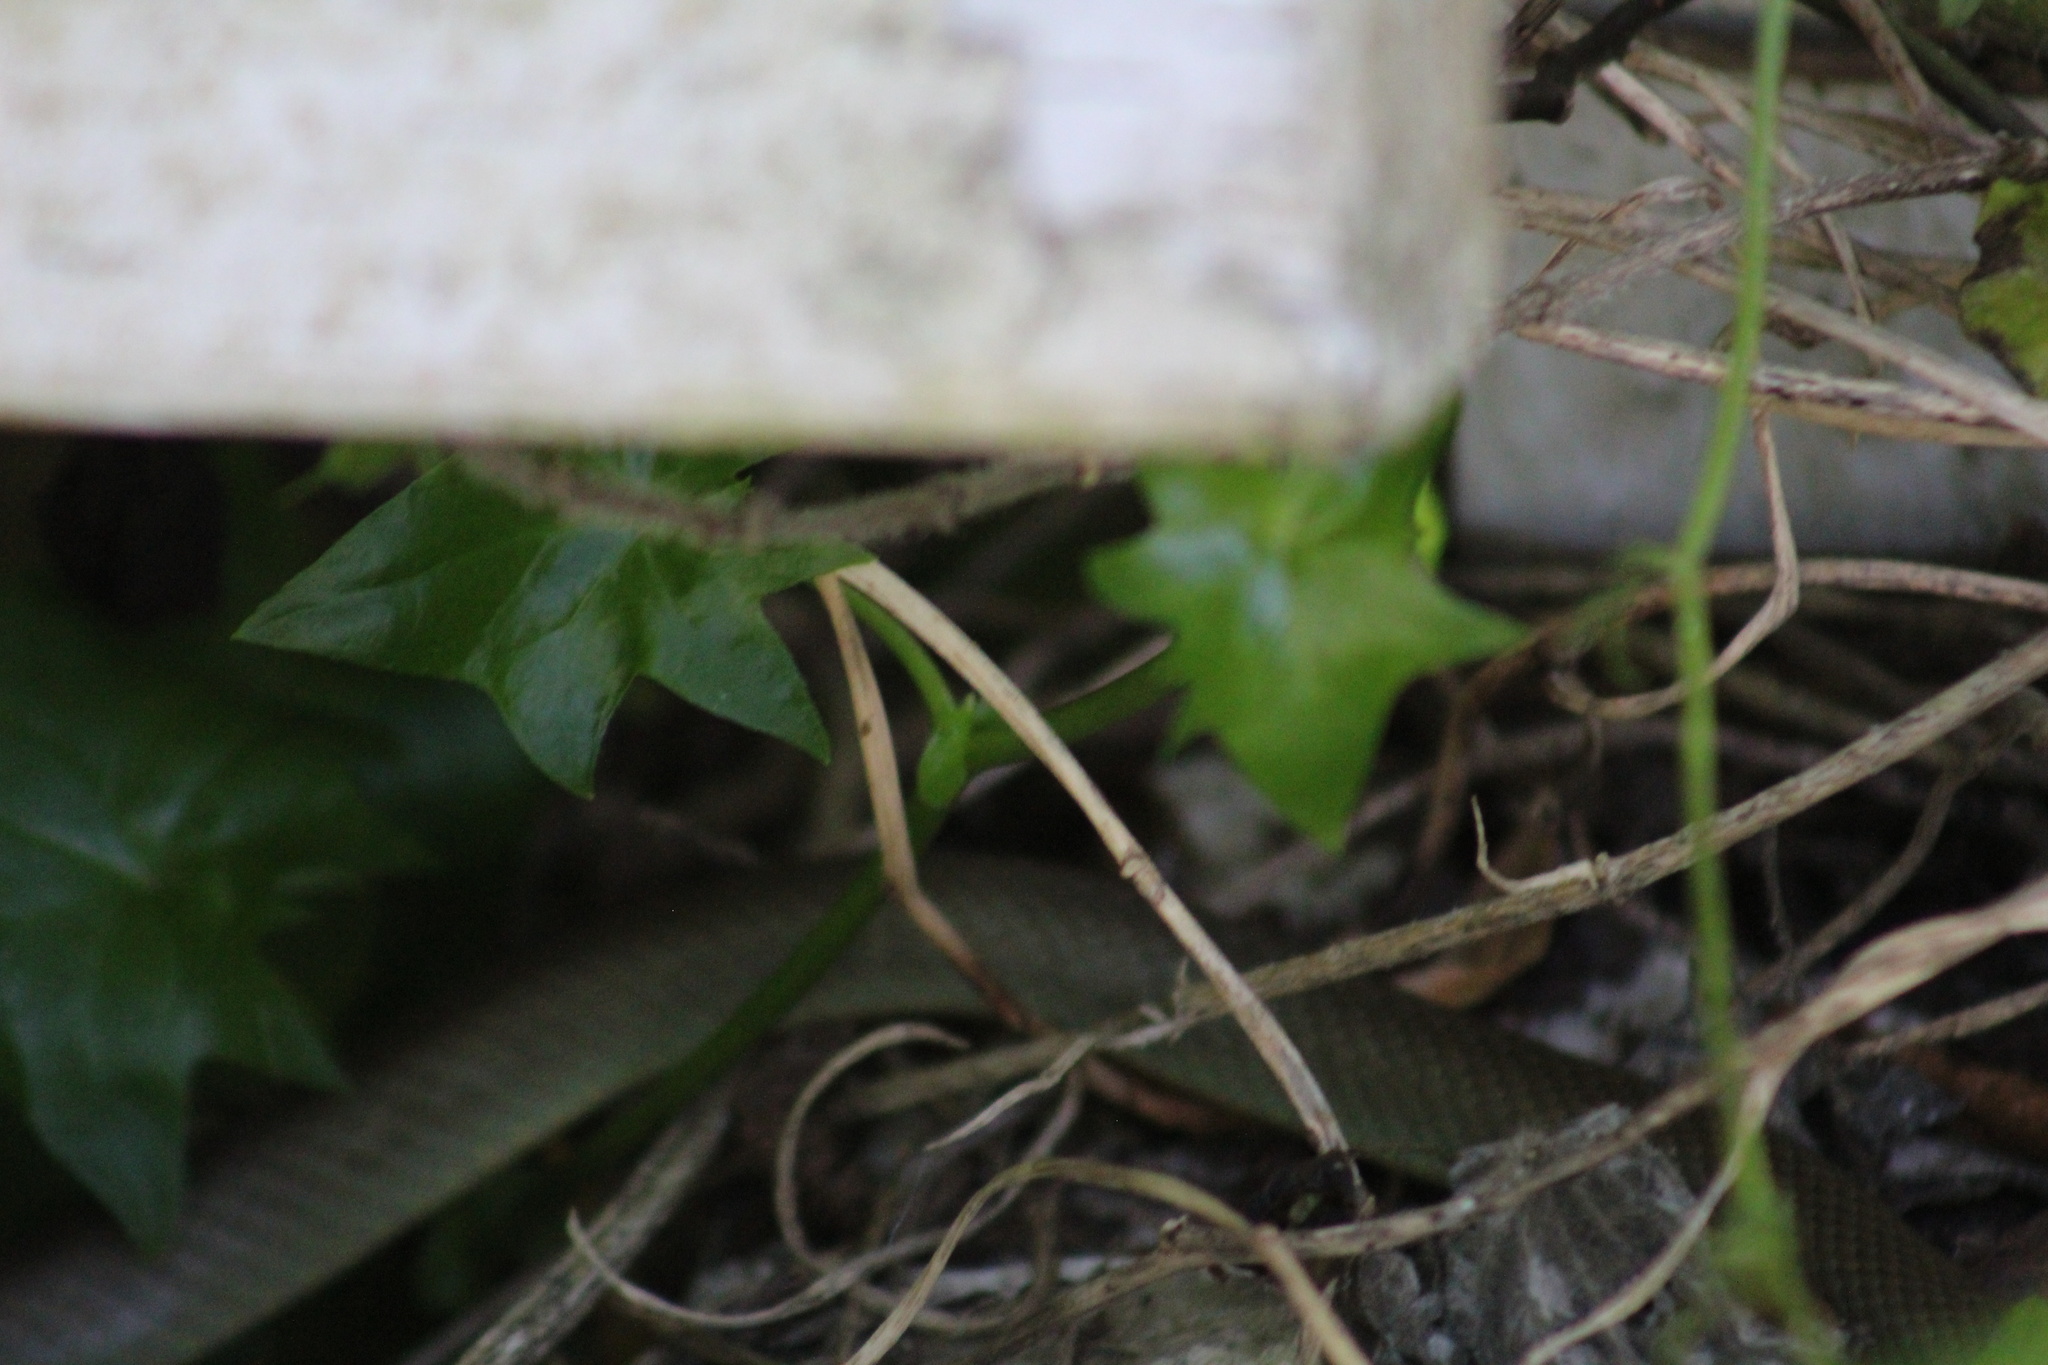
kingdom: Animalia
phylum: Chordata
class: Squamata
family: Colubridae
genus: Coluber
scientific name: Coluber constrictor
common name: Eastern racer
